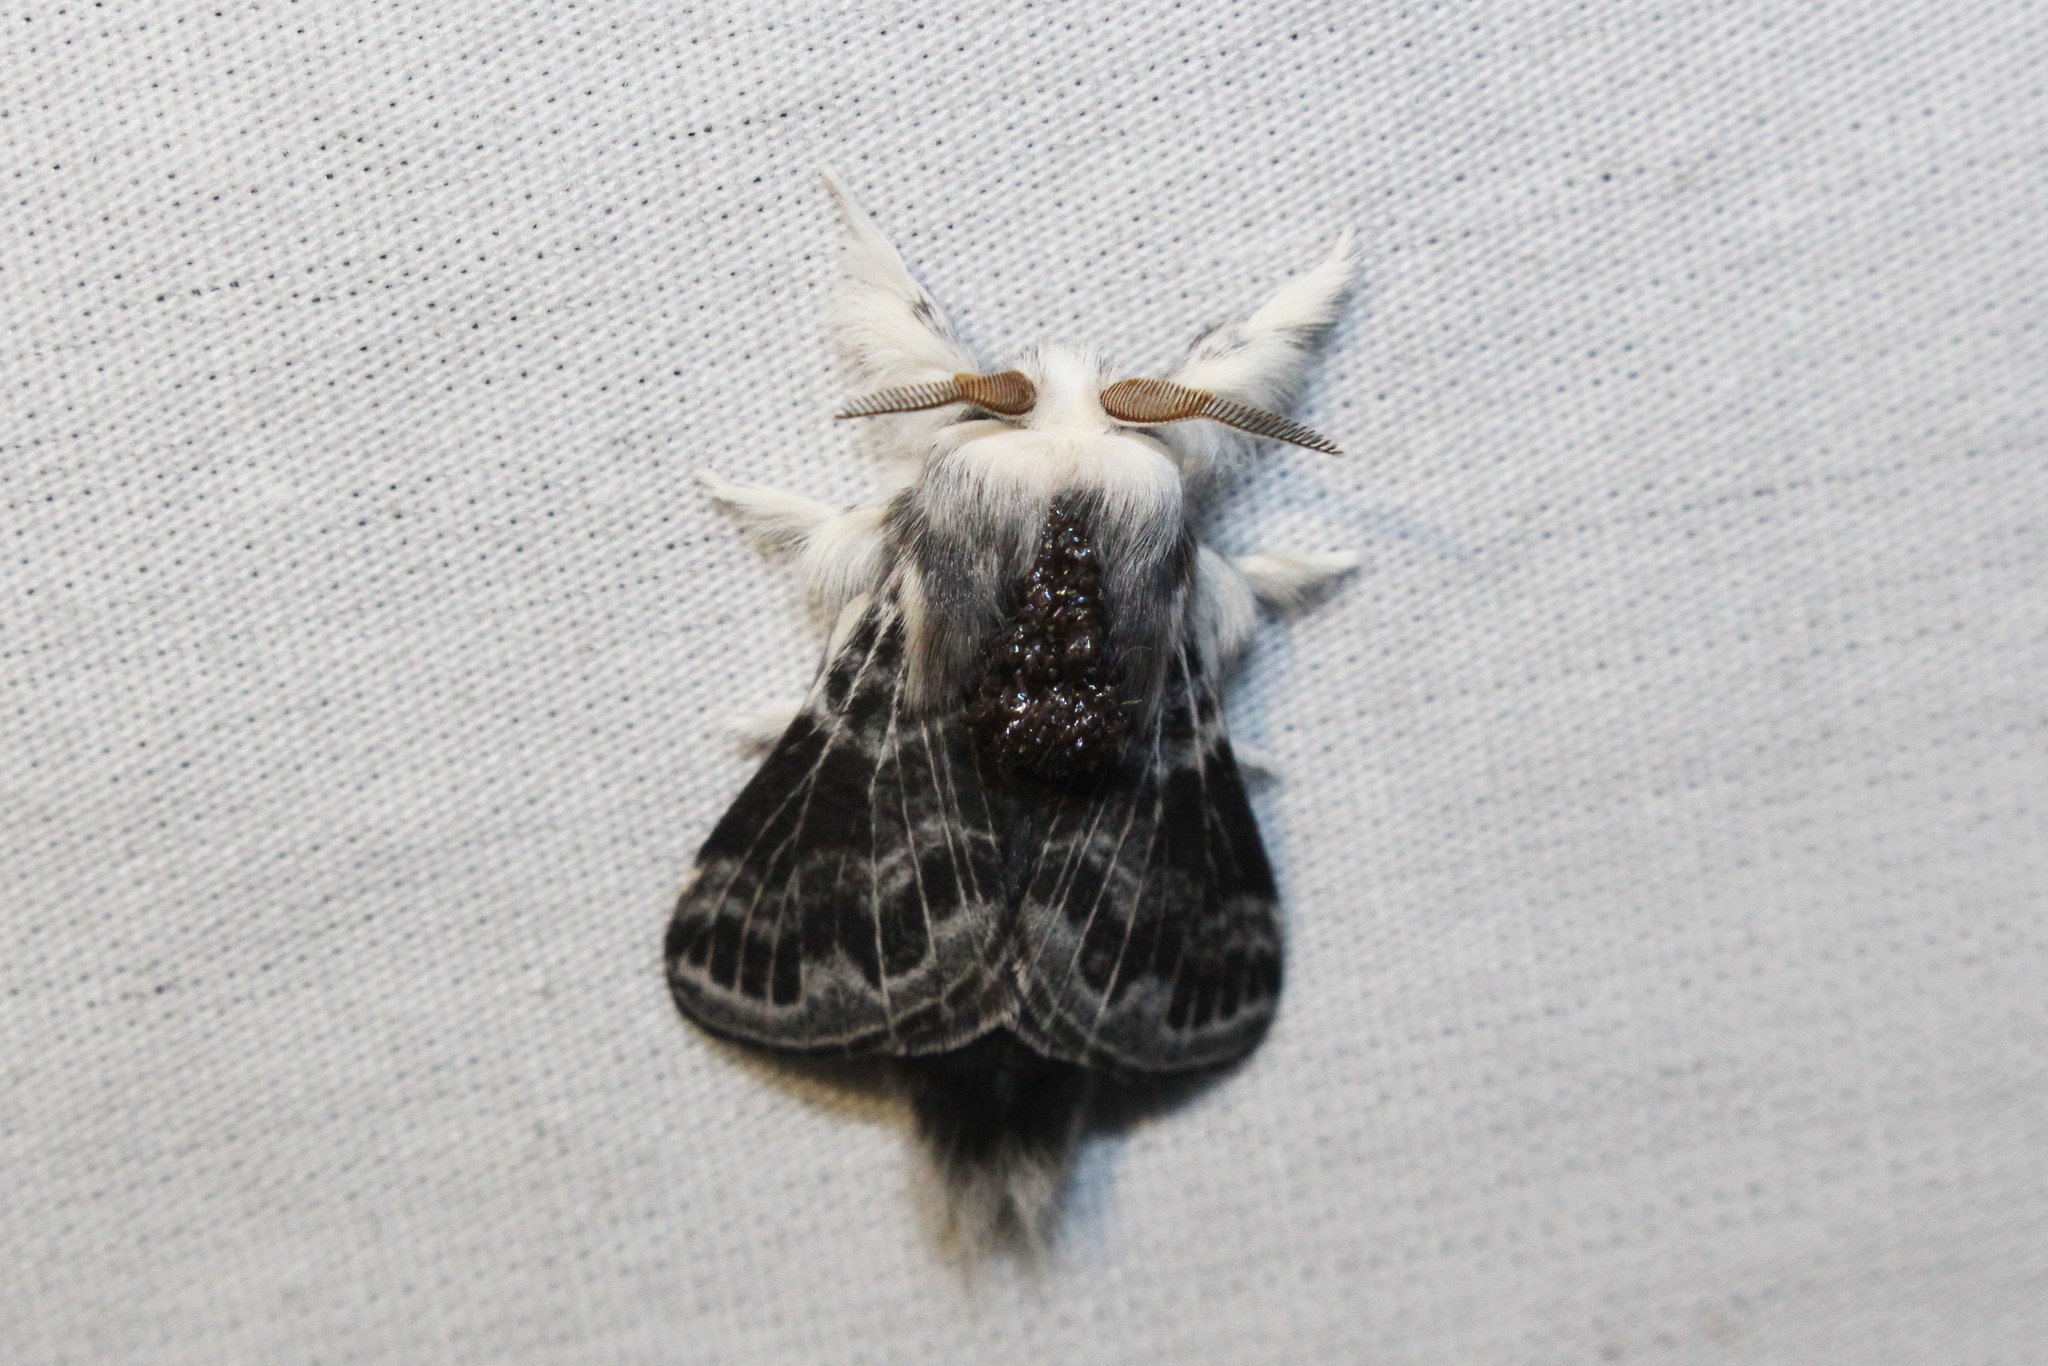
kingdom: Animalia
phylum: Arthropoda
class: Insecta
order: Lepidoptera
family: Lasiocampidae
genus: Tolype
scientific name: Tolype laricis
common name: Larch tolype moth
